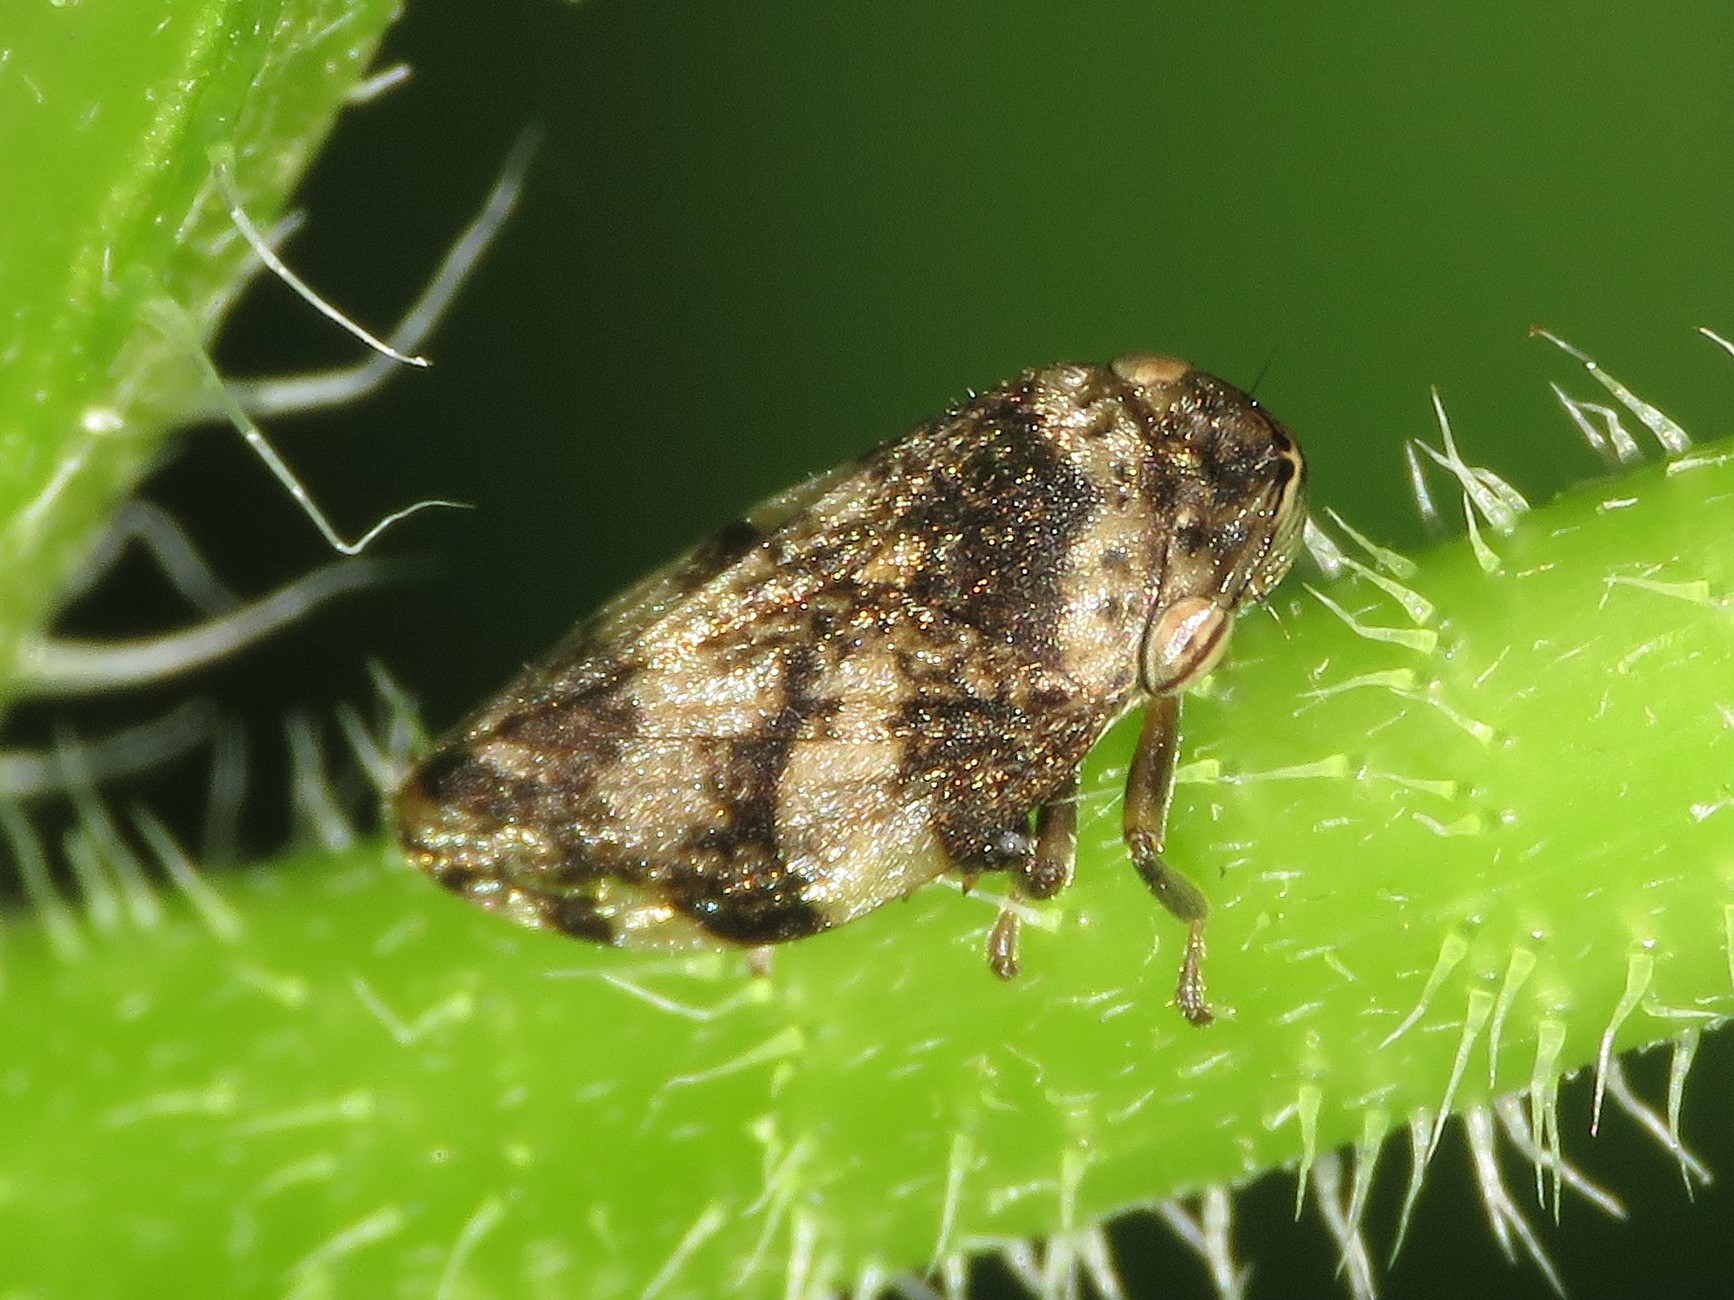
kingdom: Animalia
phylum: Arthropoda
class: Insecta
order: Hemiptera
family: Aphrophoridae
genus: Philaenus
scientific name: Philaenus spumarius
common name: Meadow spittlebug
